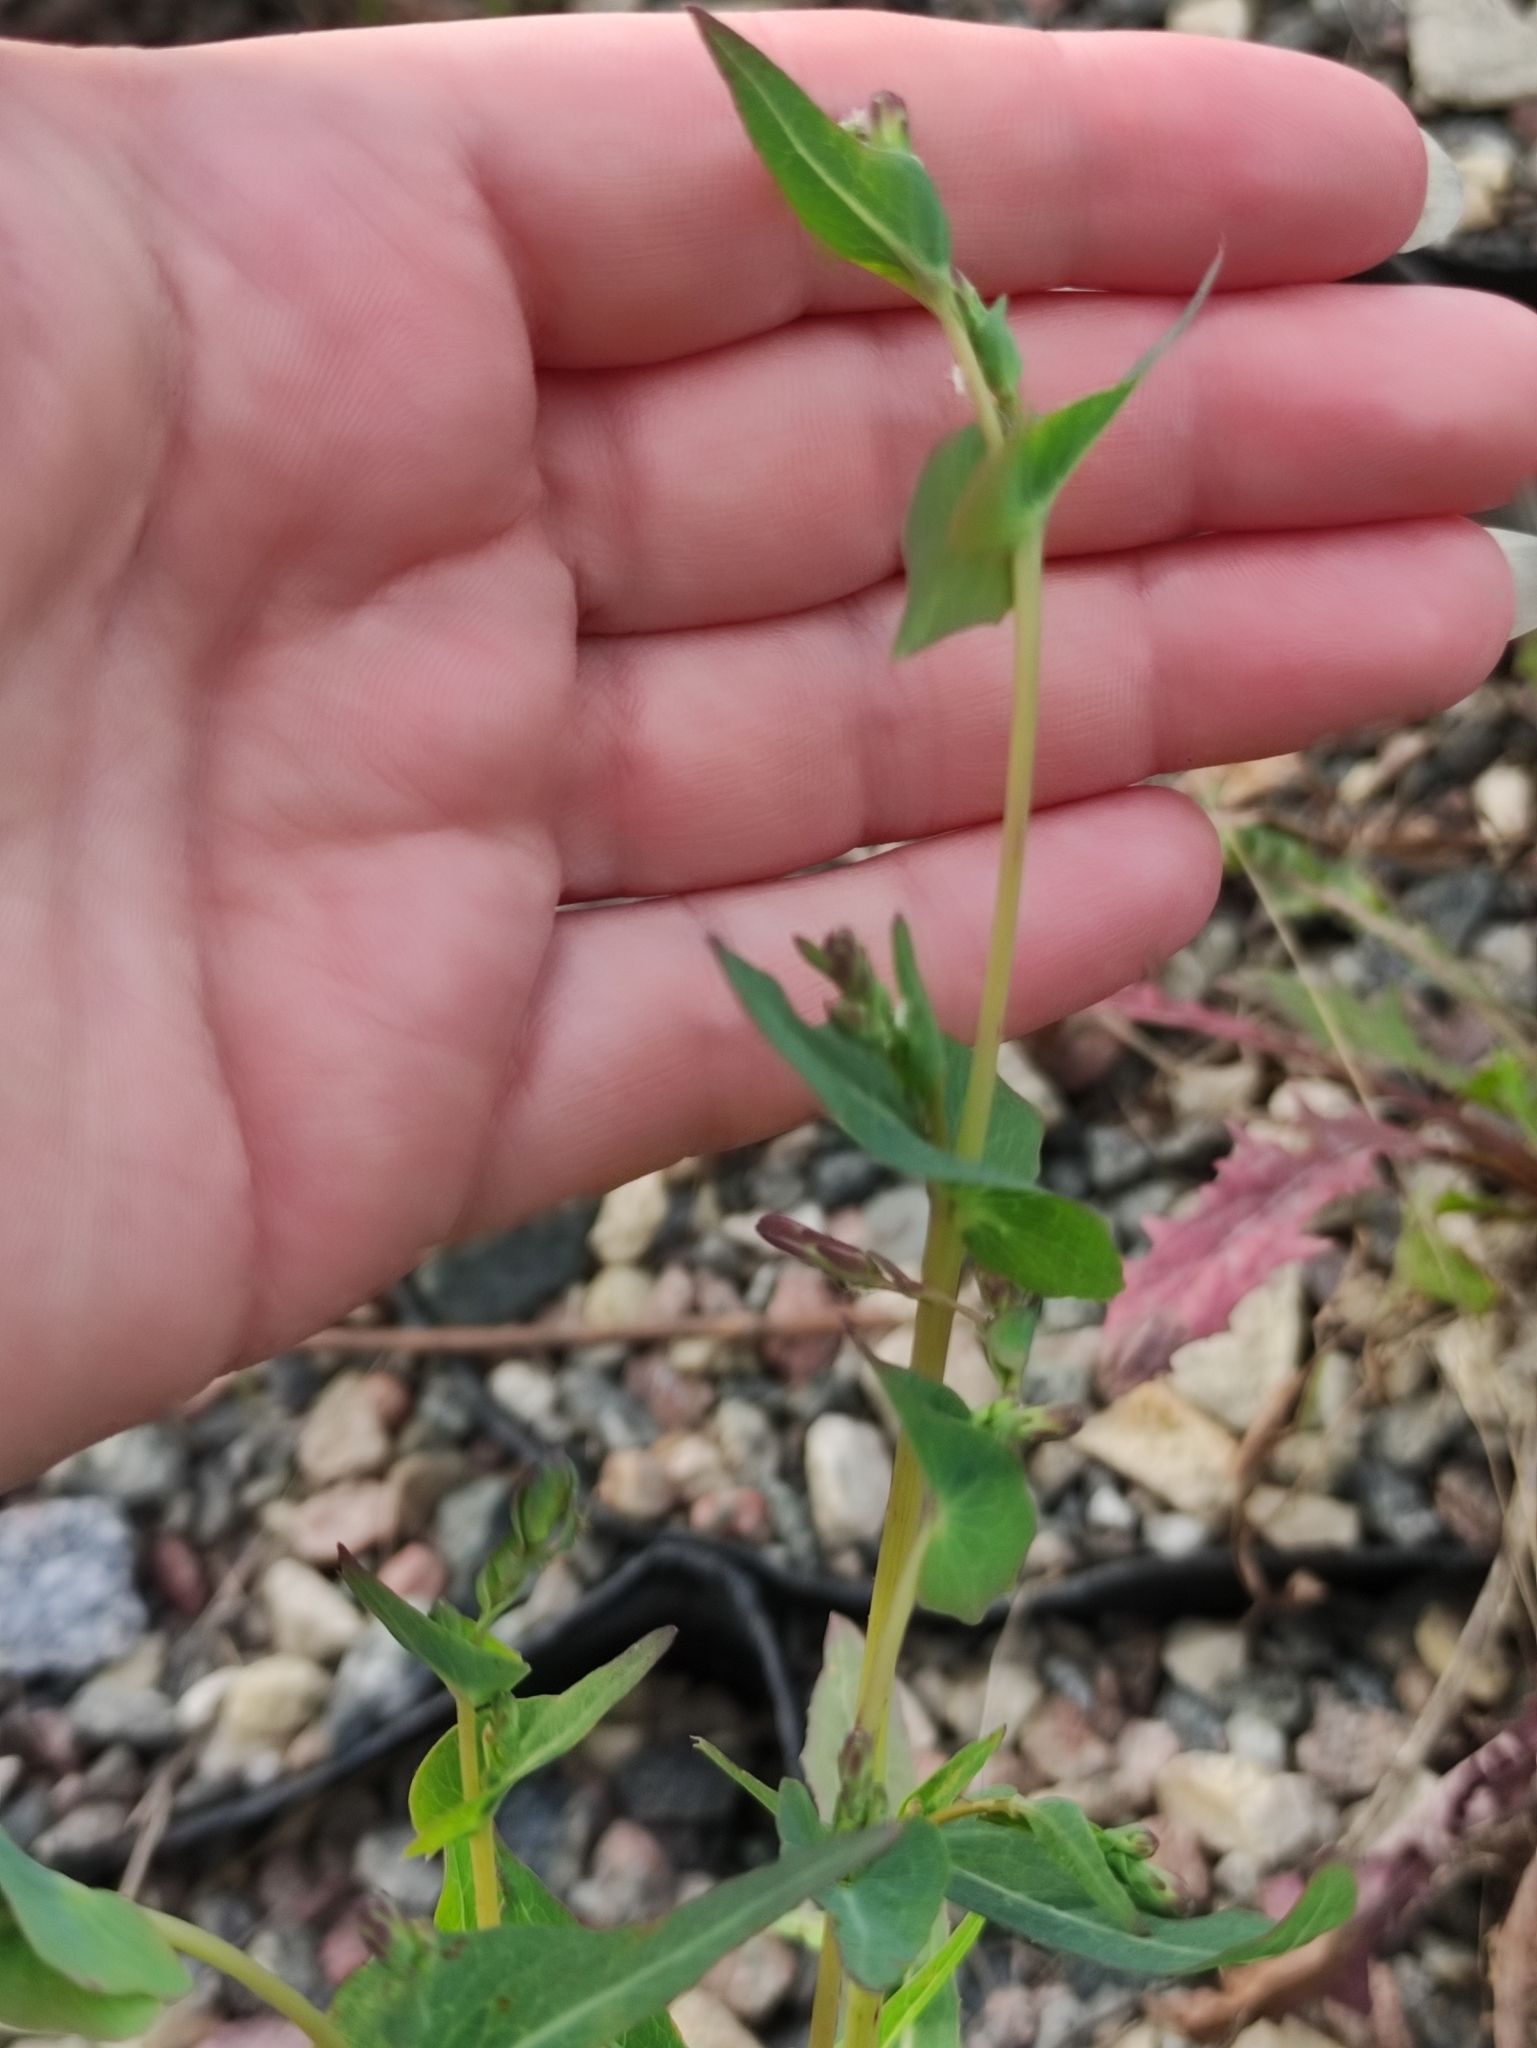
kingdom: Plantae
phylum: Tracheophyta
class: Magnoliopsida
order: Asterales
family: Asteraceae
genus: Lactuca
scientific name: Lactuca serriola
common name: Prickly lettuce
